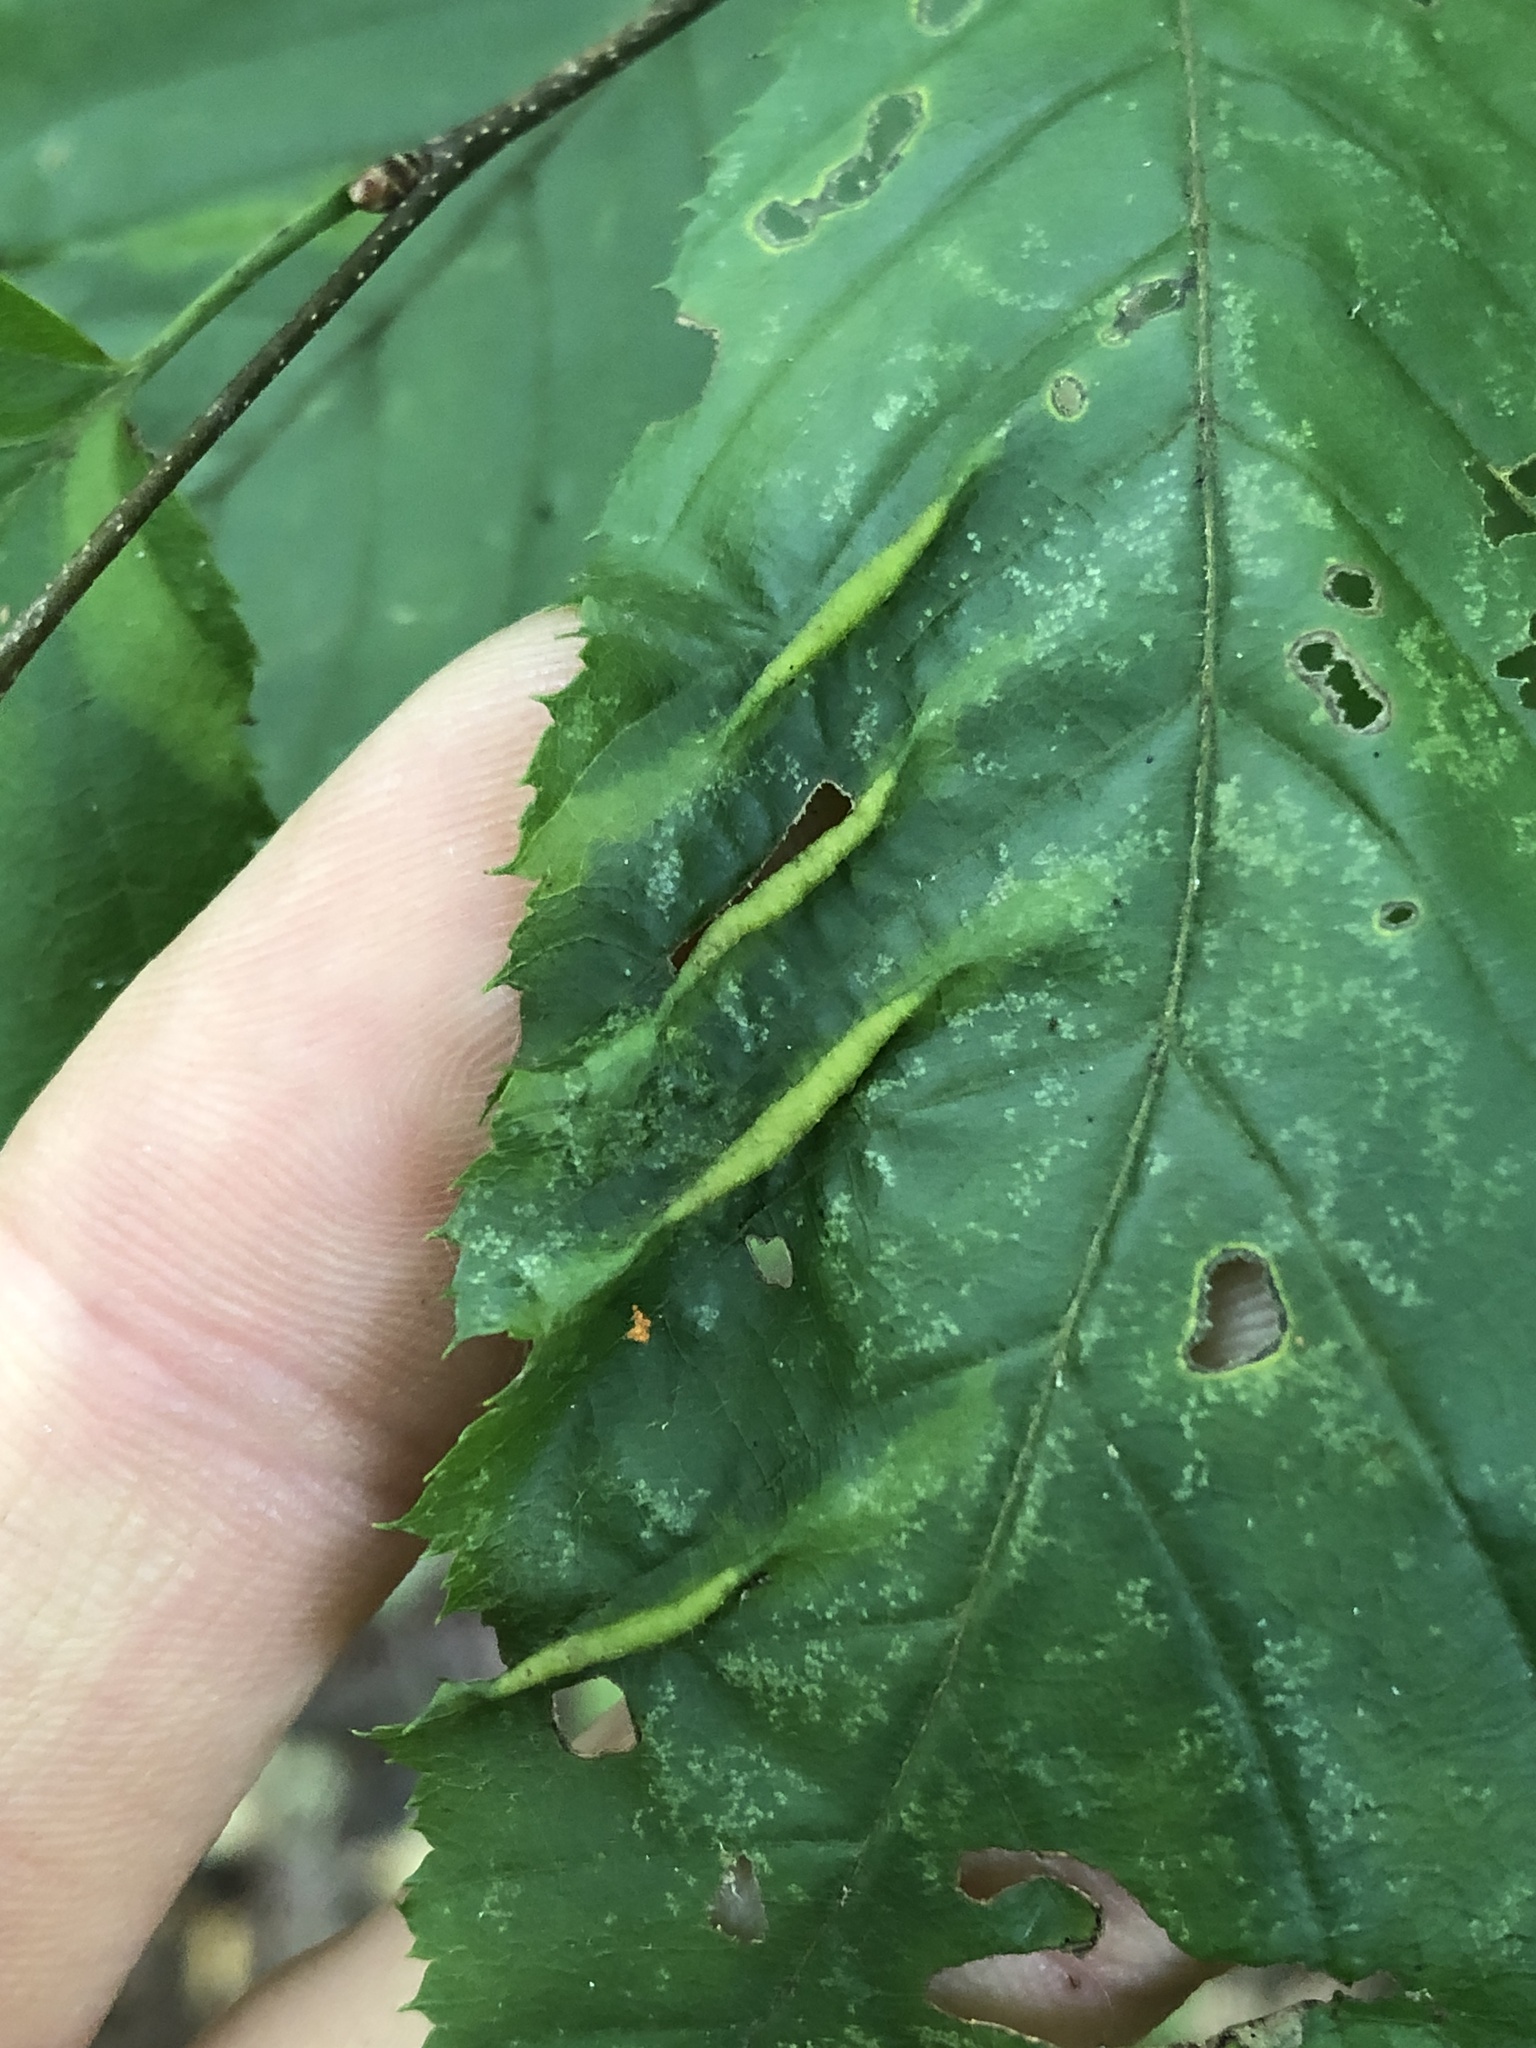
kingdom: Animalia
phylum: Arthropoda
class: Insecta
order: Diptera
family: Cecidomyiidae
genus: Dasineura
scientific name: Dasineura pudibunda
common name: Hornbeam leaf gall midge
